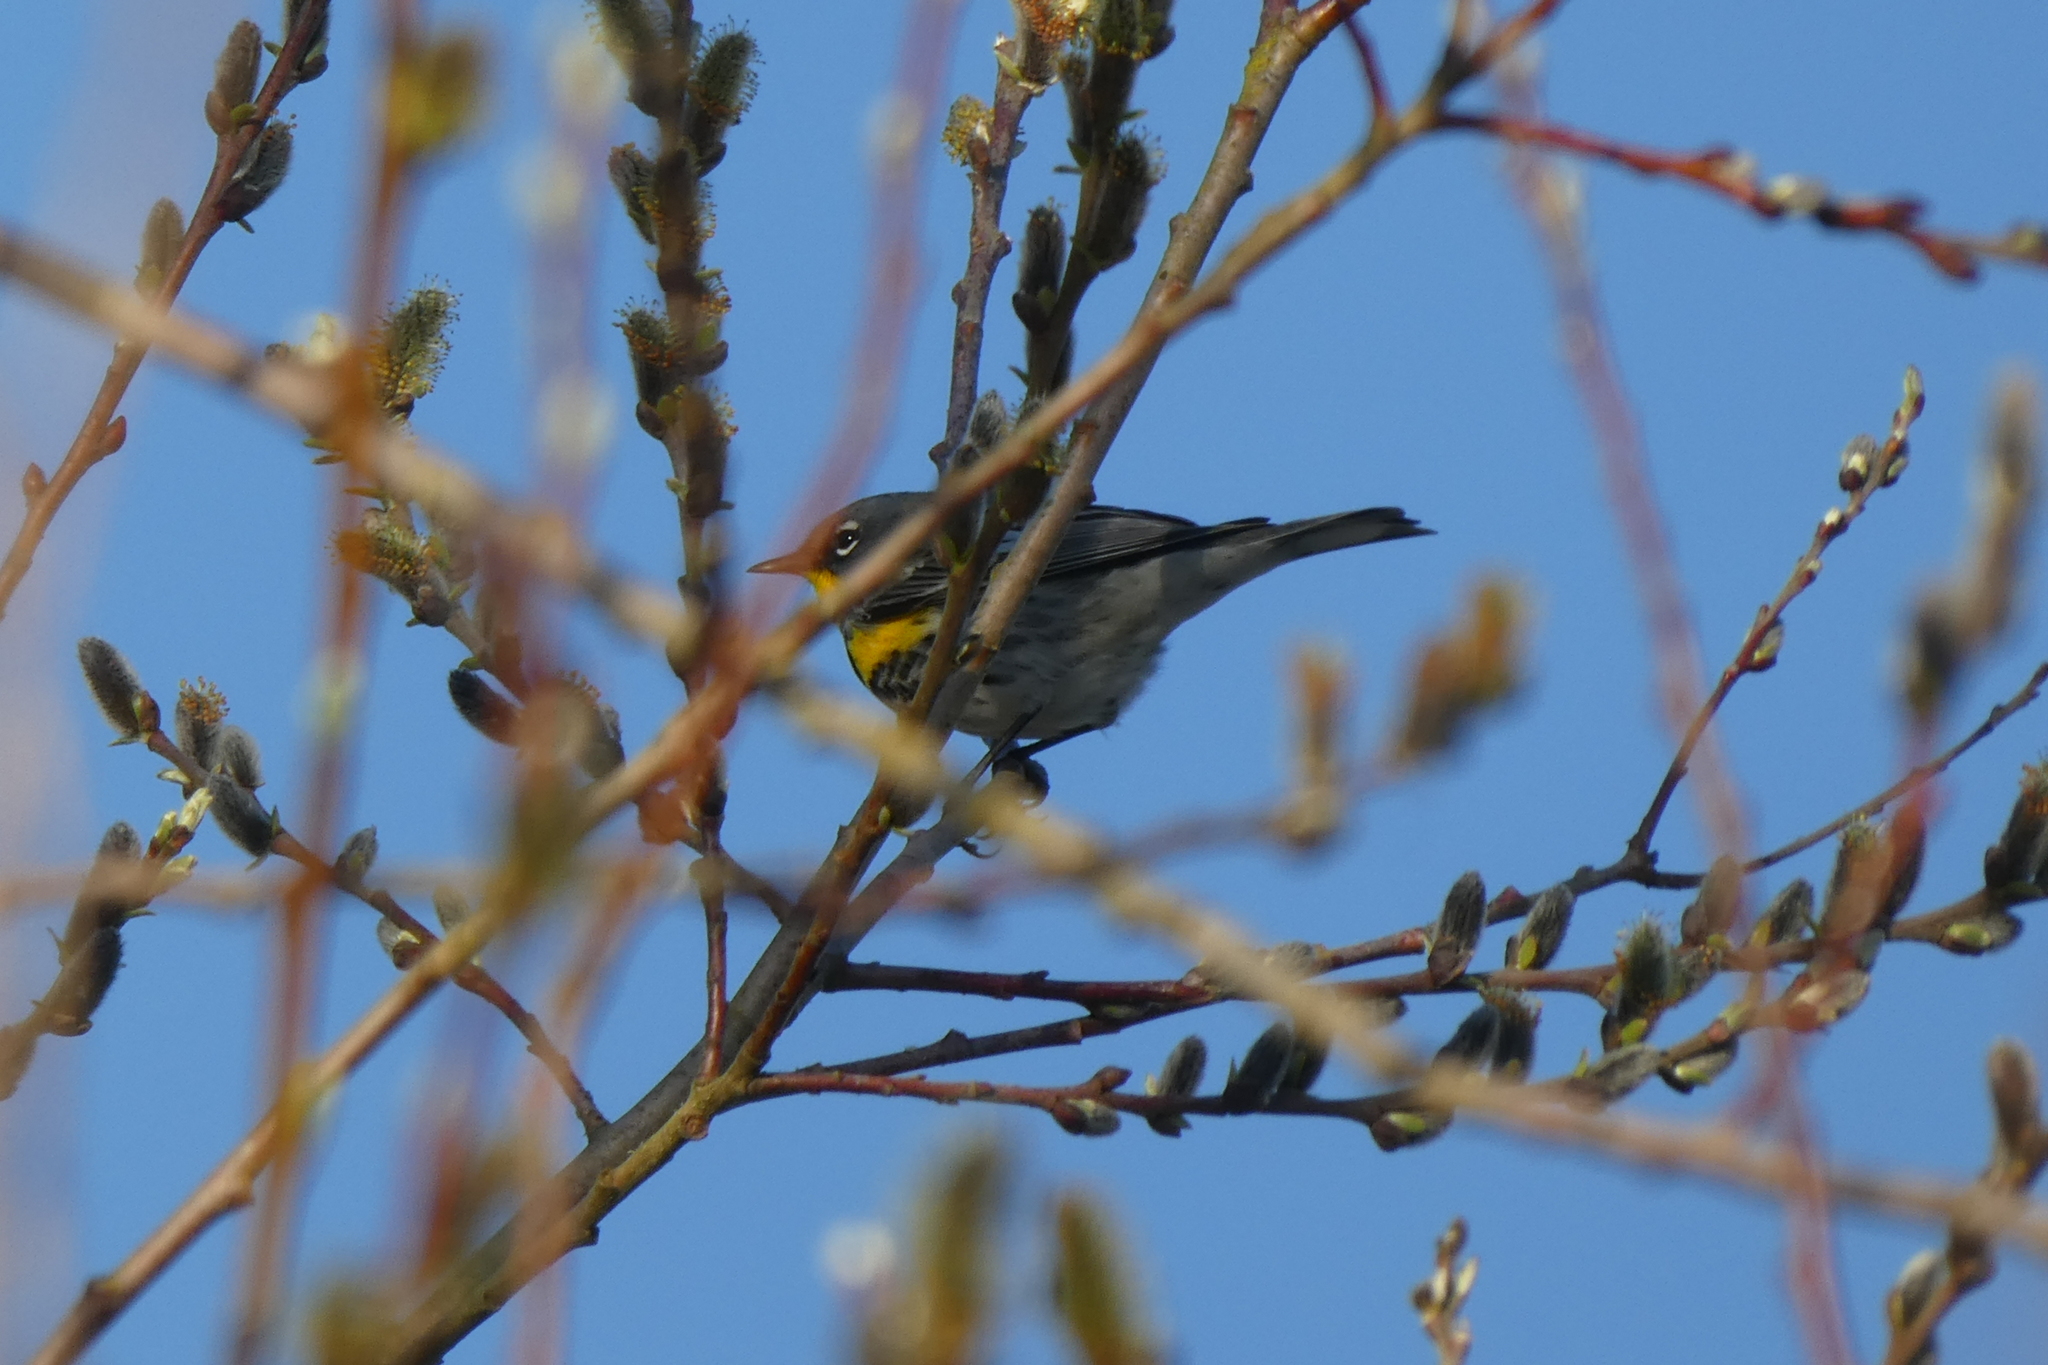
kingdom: Animalia
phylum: Chordata
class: Aves
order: Passeriformes
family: Parulidae
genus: Setophaga
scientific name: Setophaga auduboni
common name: Audubon's warbler
